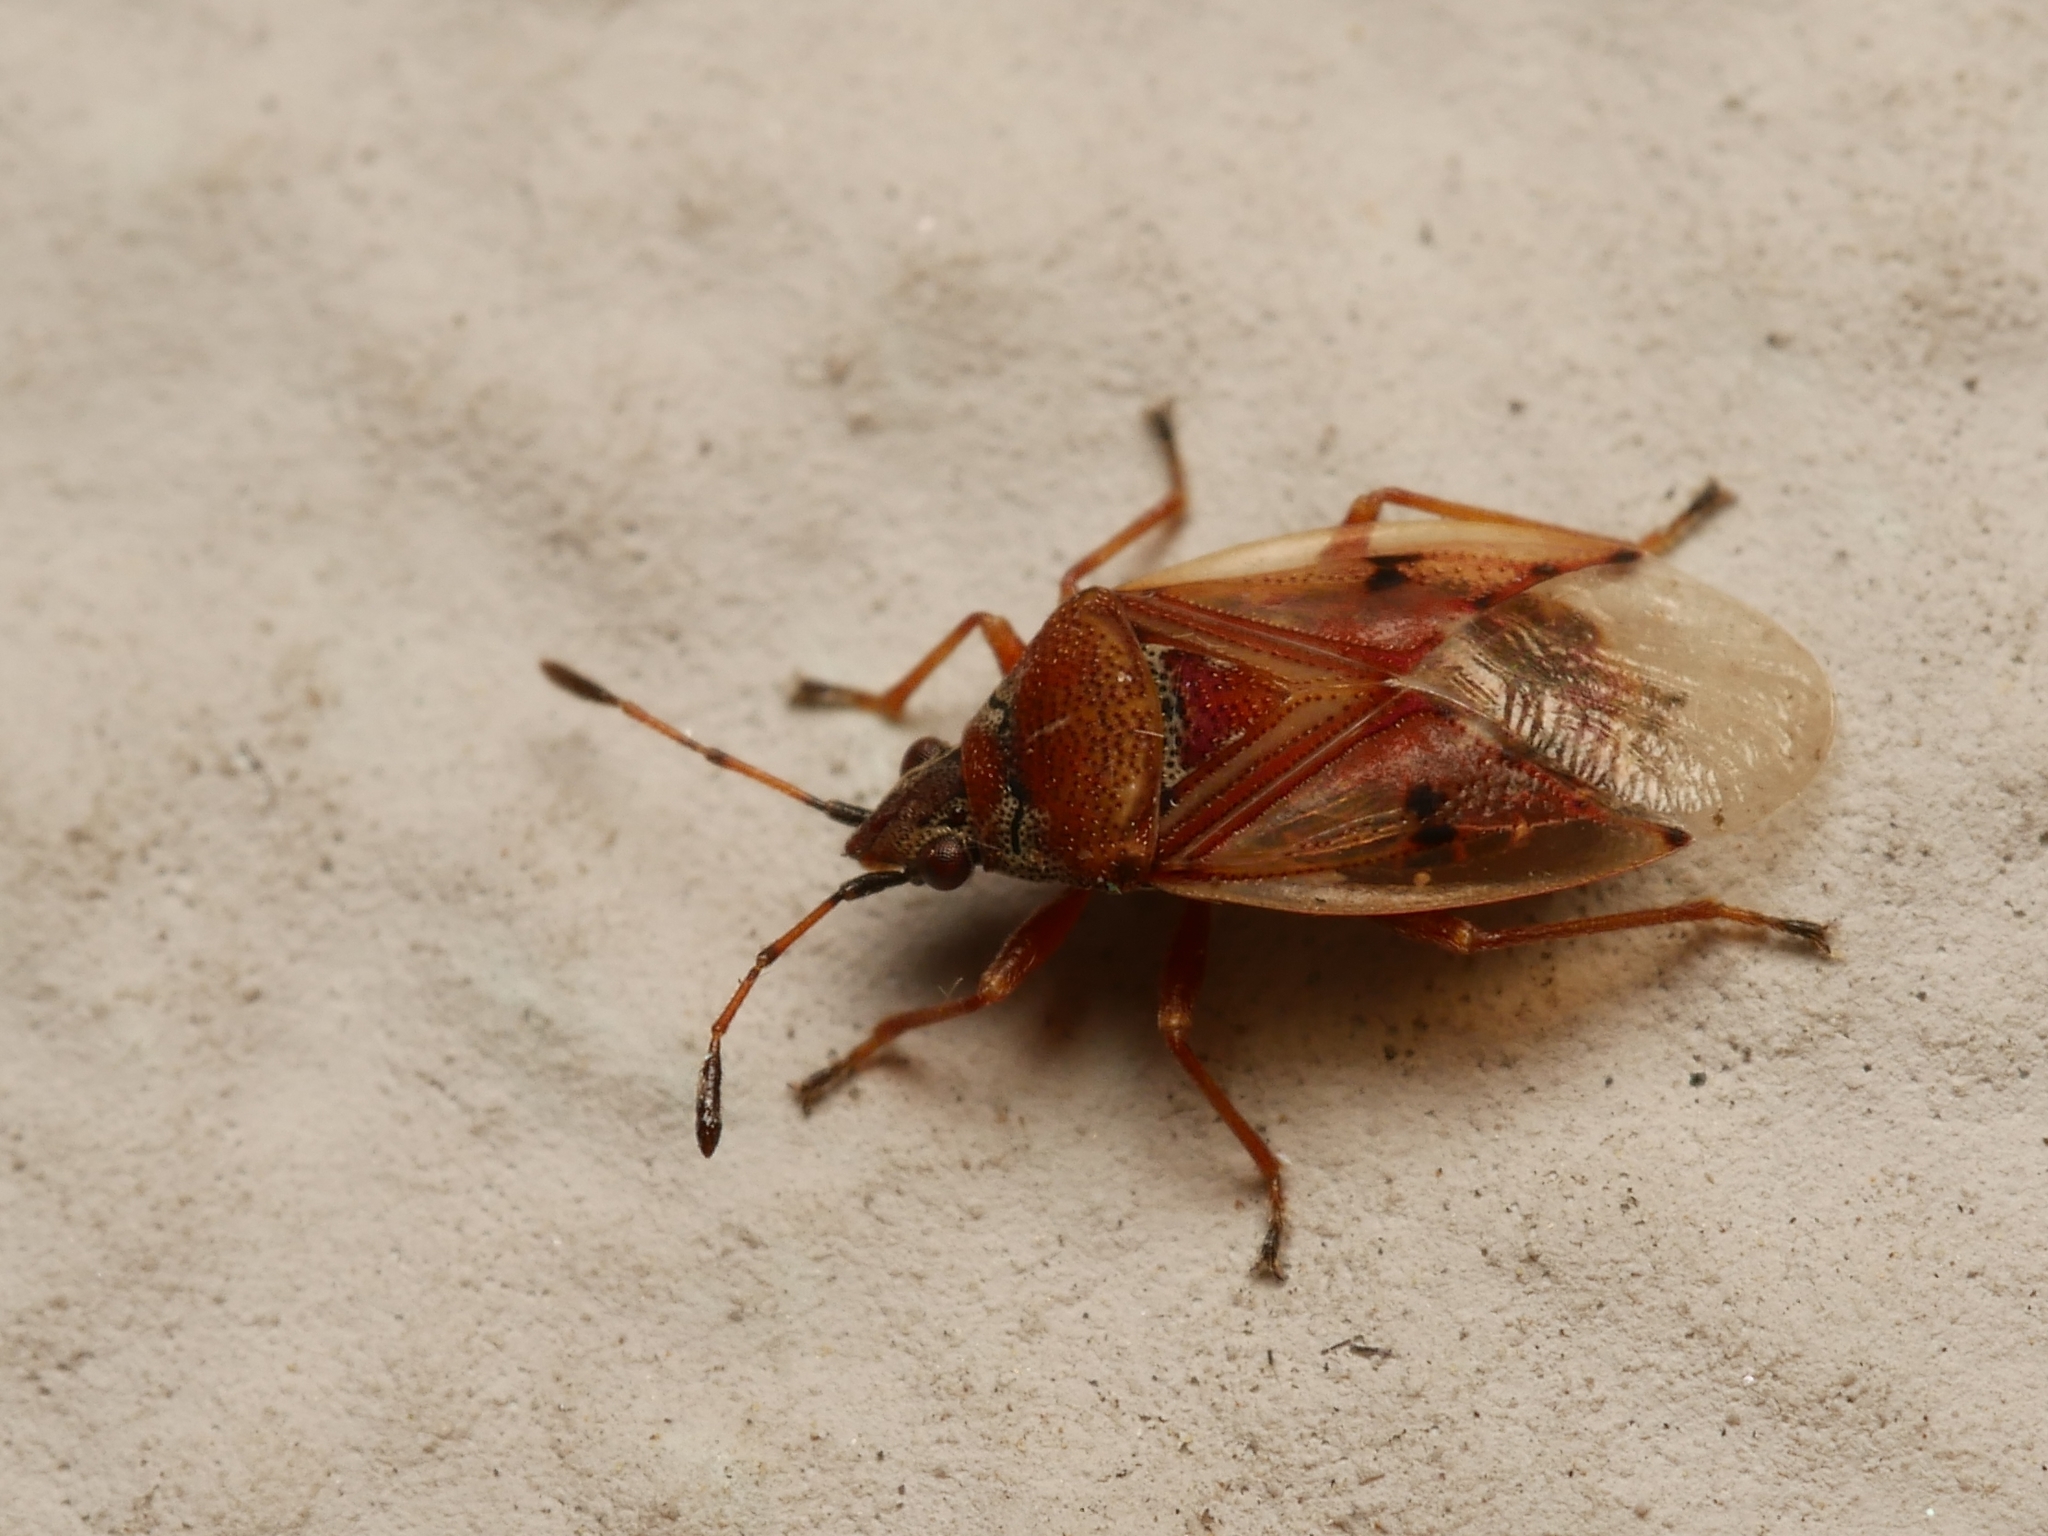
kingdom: Animalia
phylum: Arthropoda
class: Insecta
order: Hemiptera
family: Lygaeidae
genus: Kleidocerys
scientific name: Kleidocerys resedae
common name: Birch catkin bug
